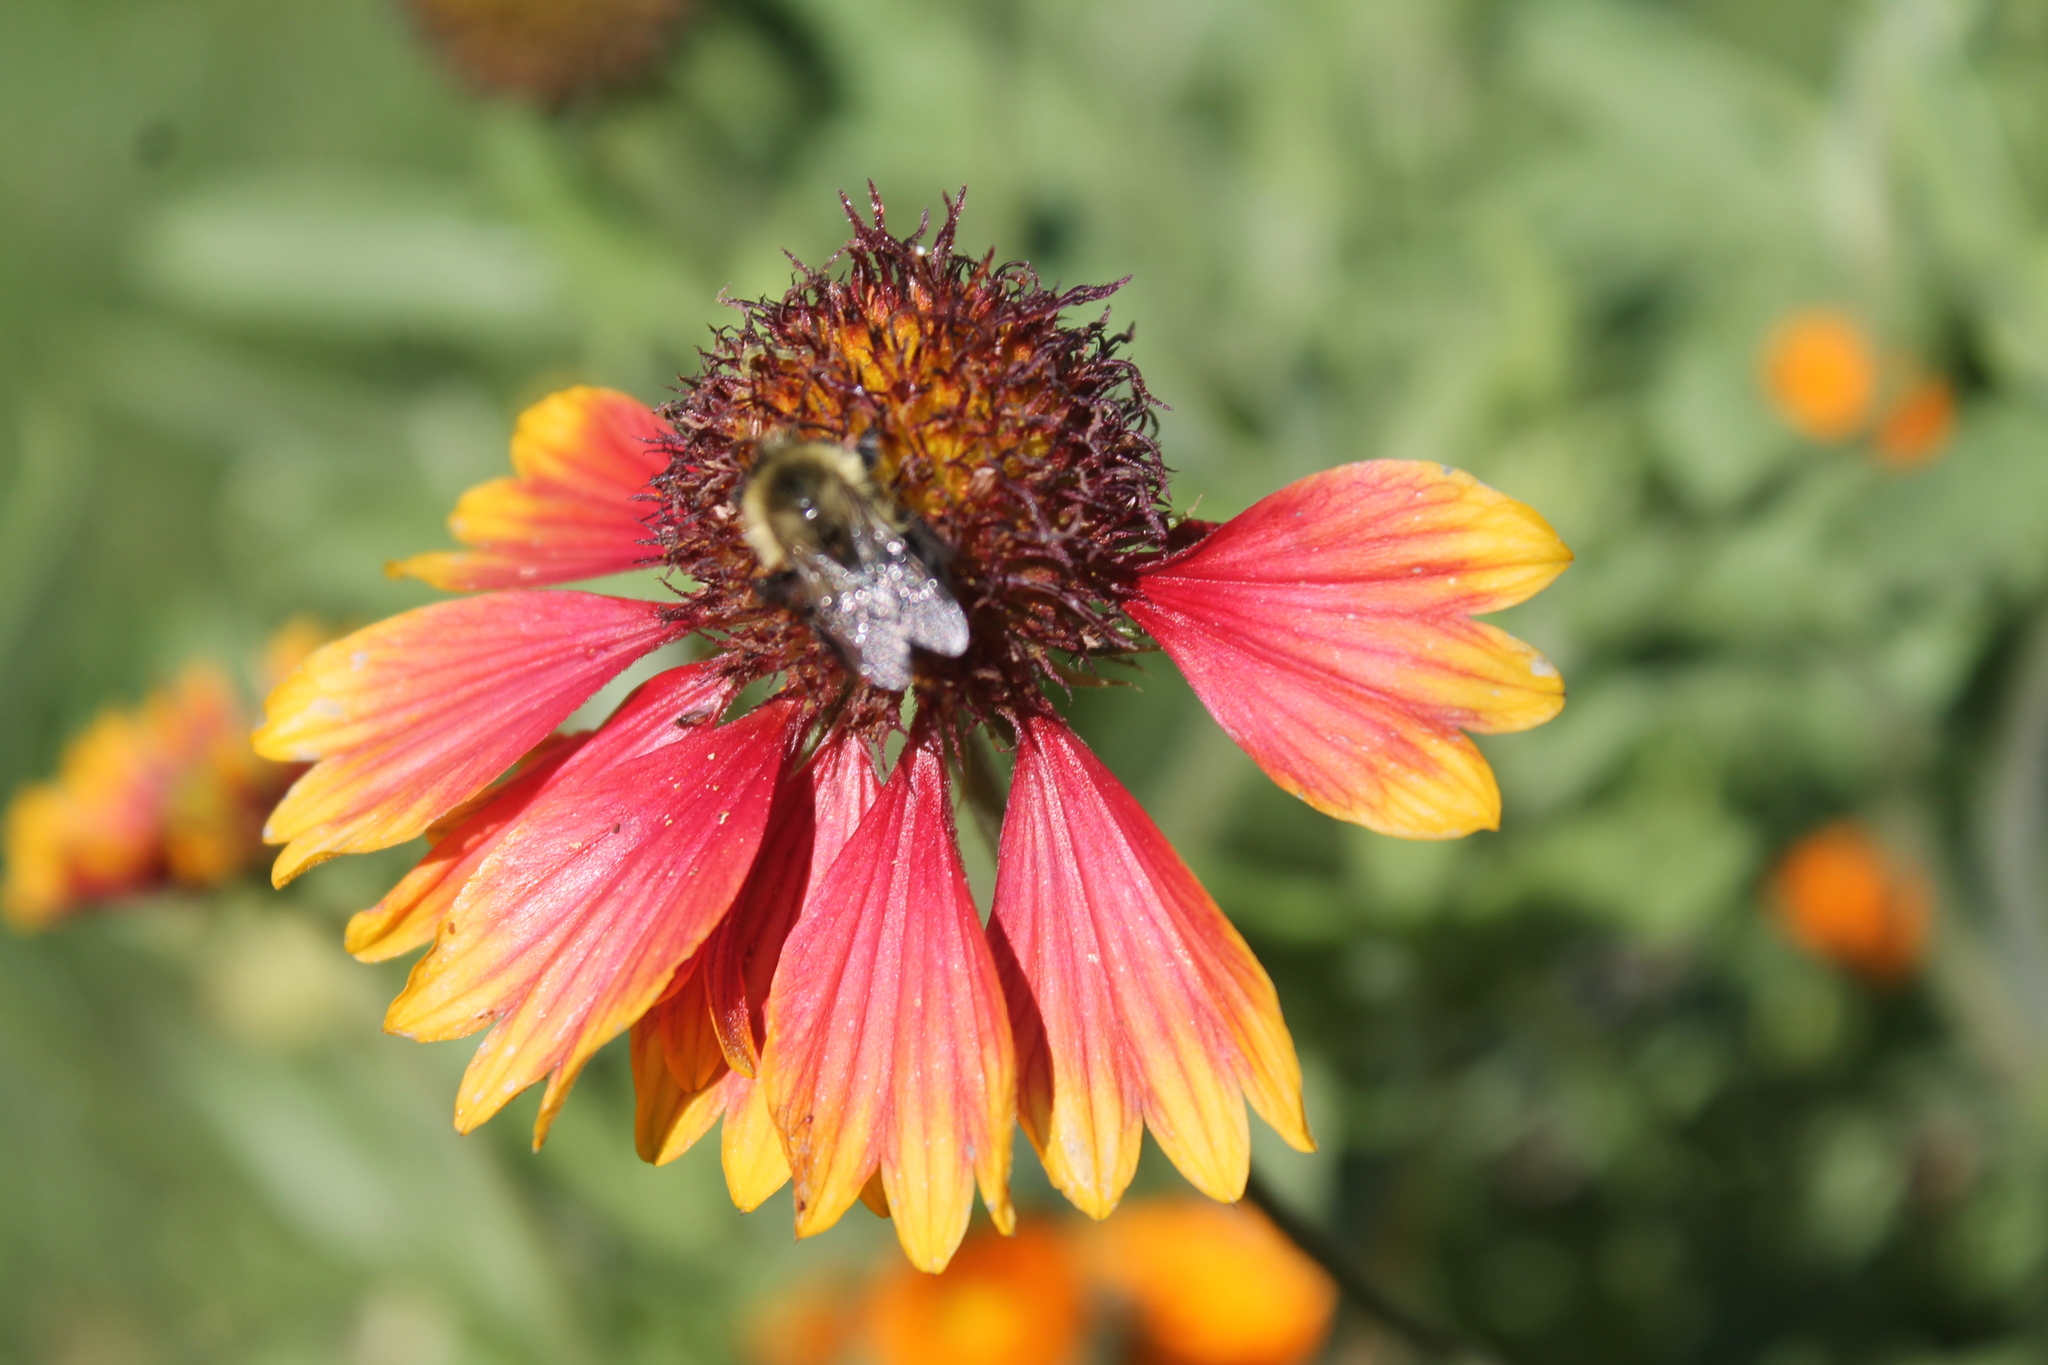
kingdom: Animalia
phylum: Arthropoda
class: Insecta
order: Hymenoptera
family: Apidae
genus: Bombus
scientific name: Bombus impatiens
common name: Common eastern bumble bee
